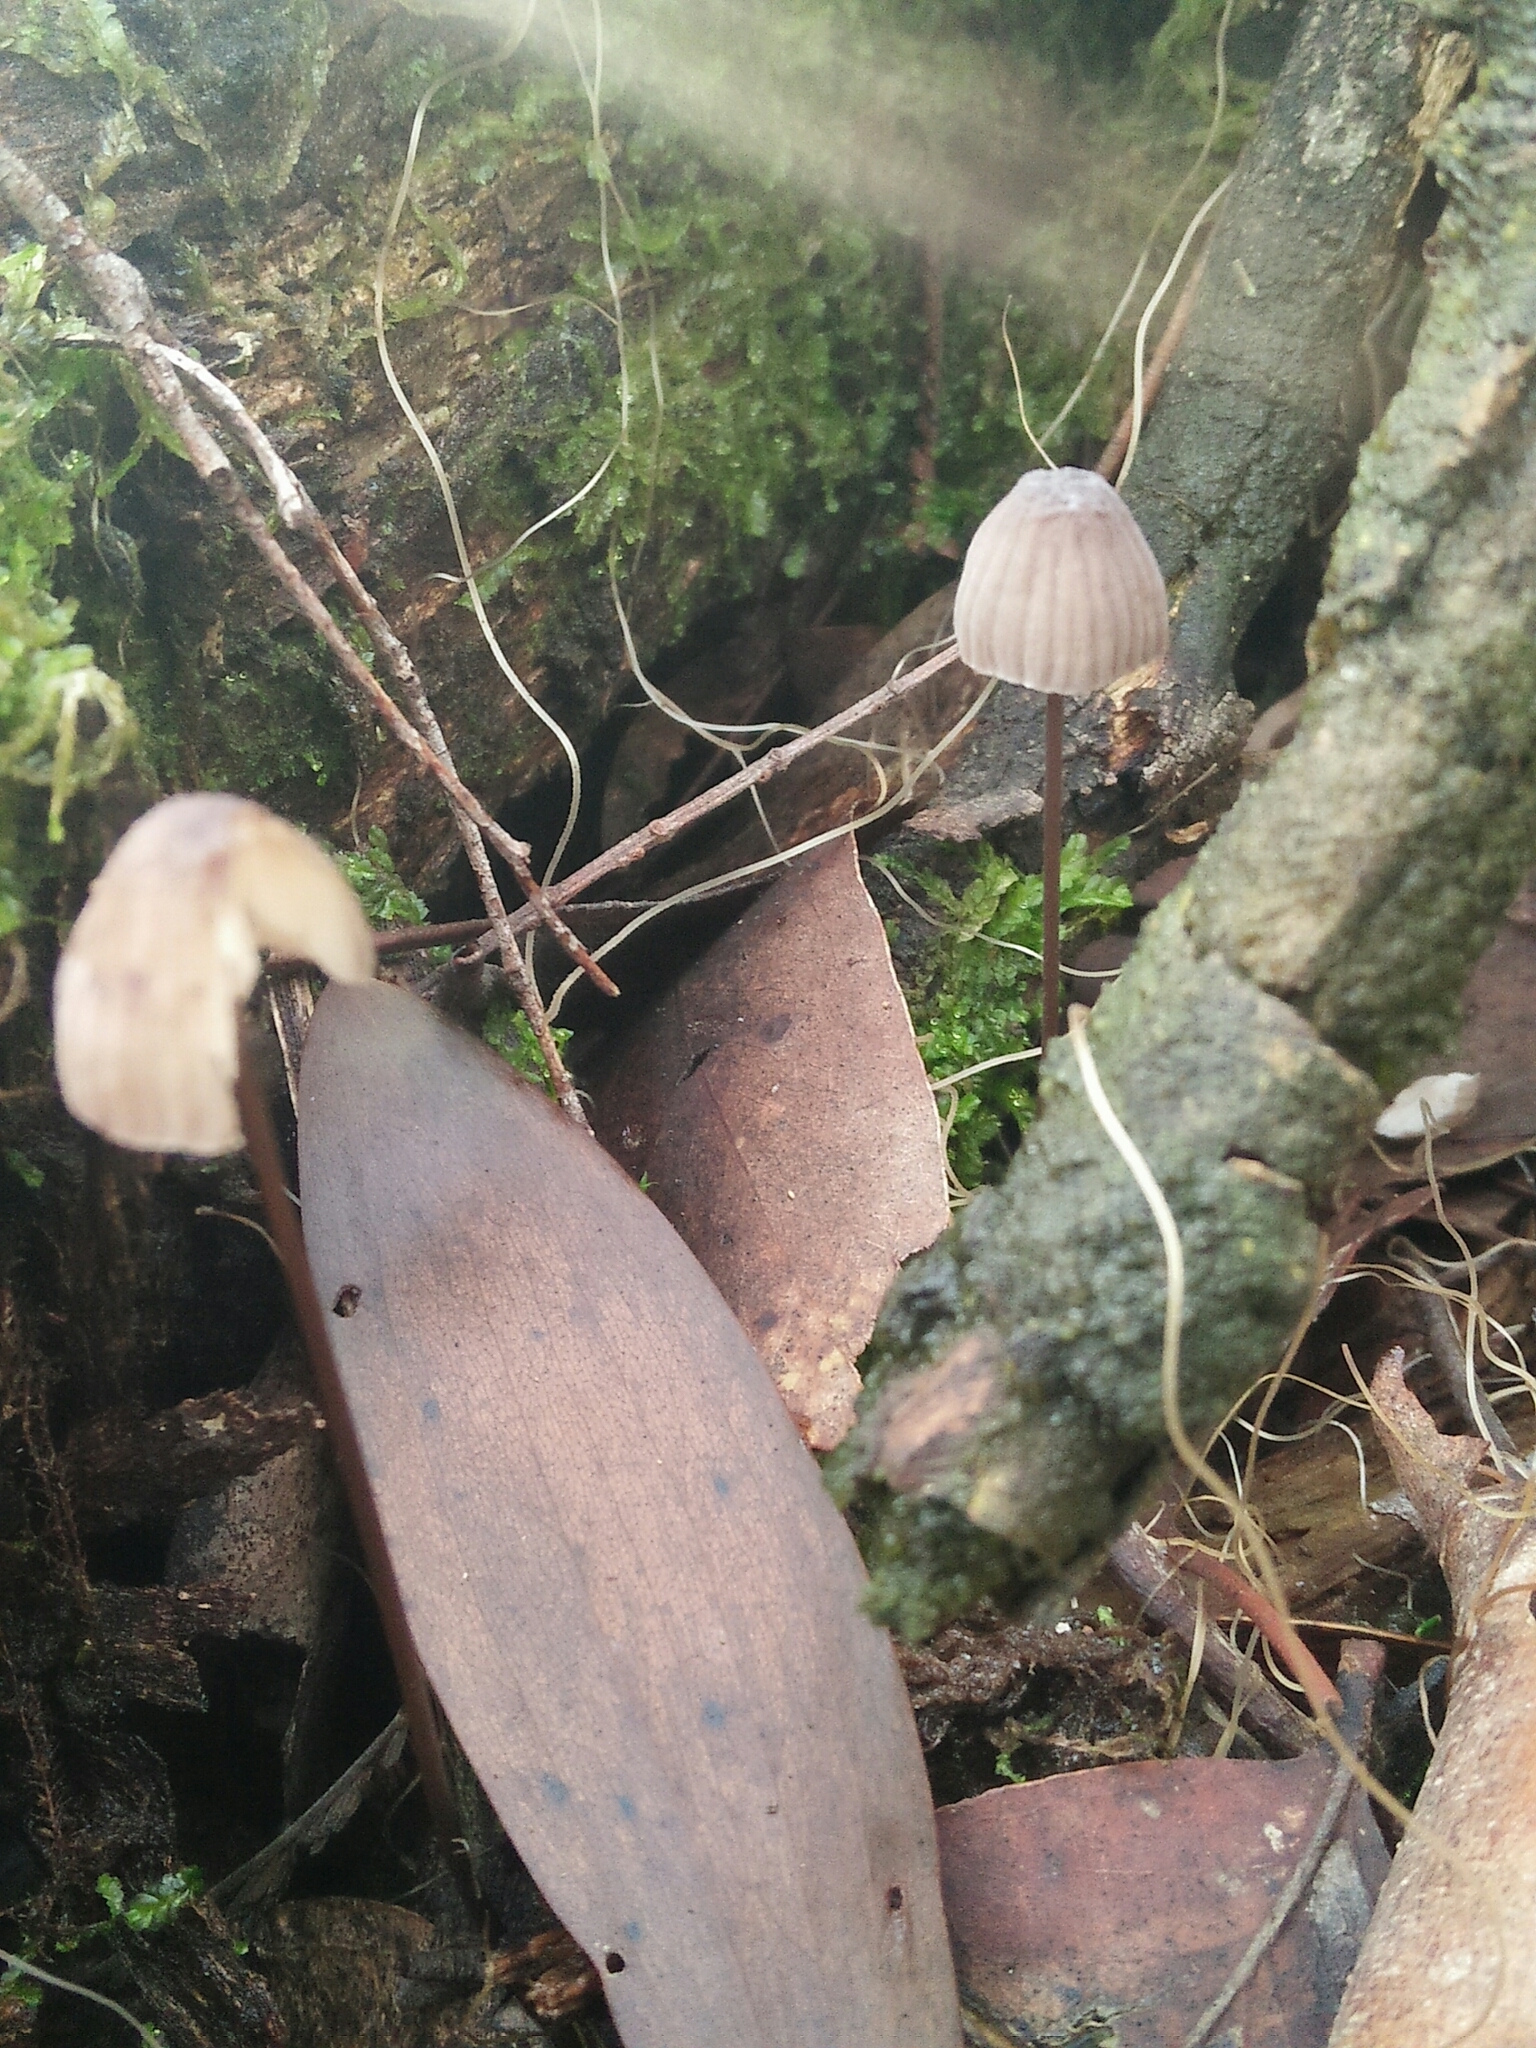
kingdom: Fungi
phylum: Basidiomycota
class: Agaricomycetes
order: Agaricales
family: Mycenaceae
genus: Mycena
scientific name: Mycena cystidiosa
